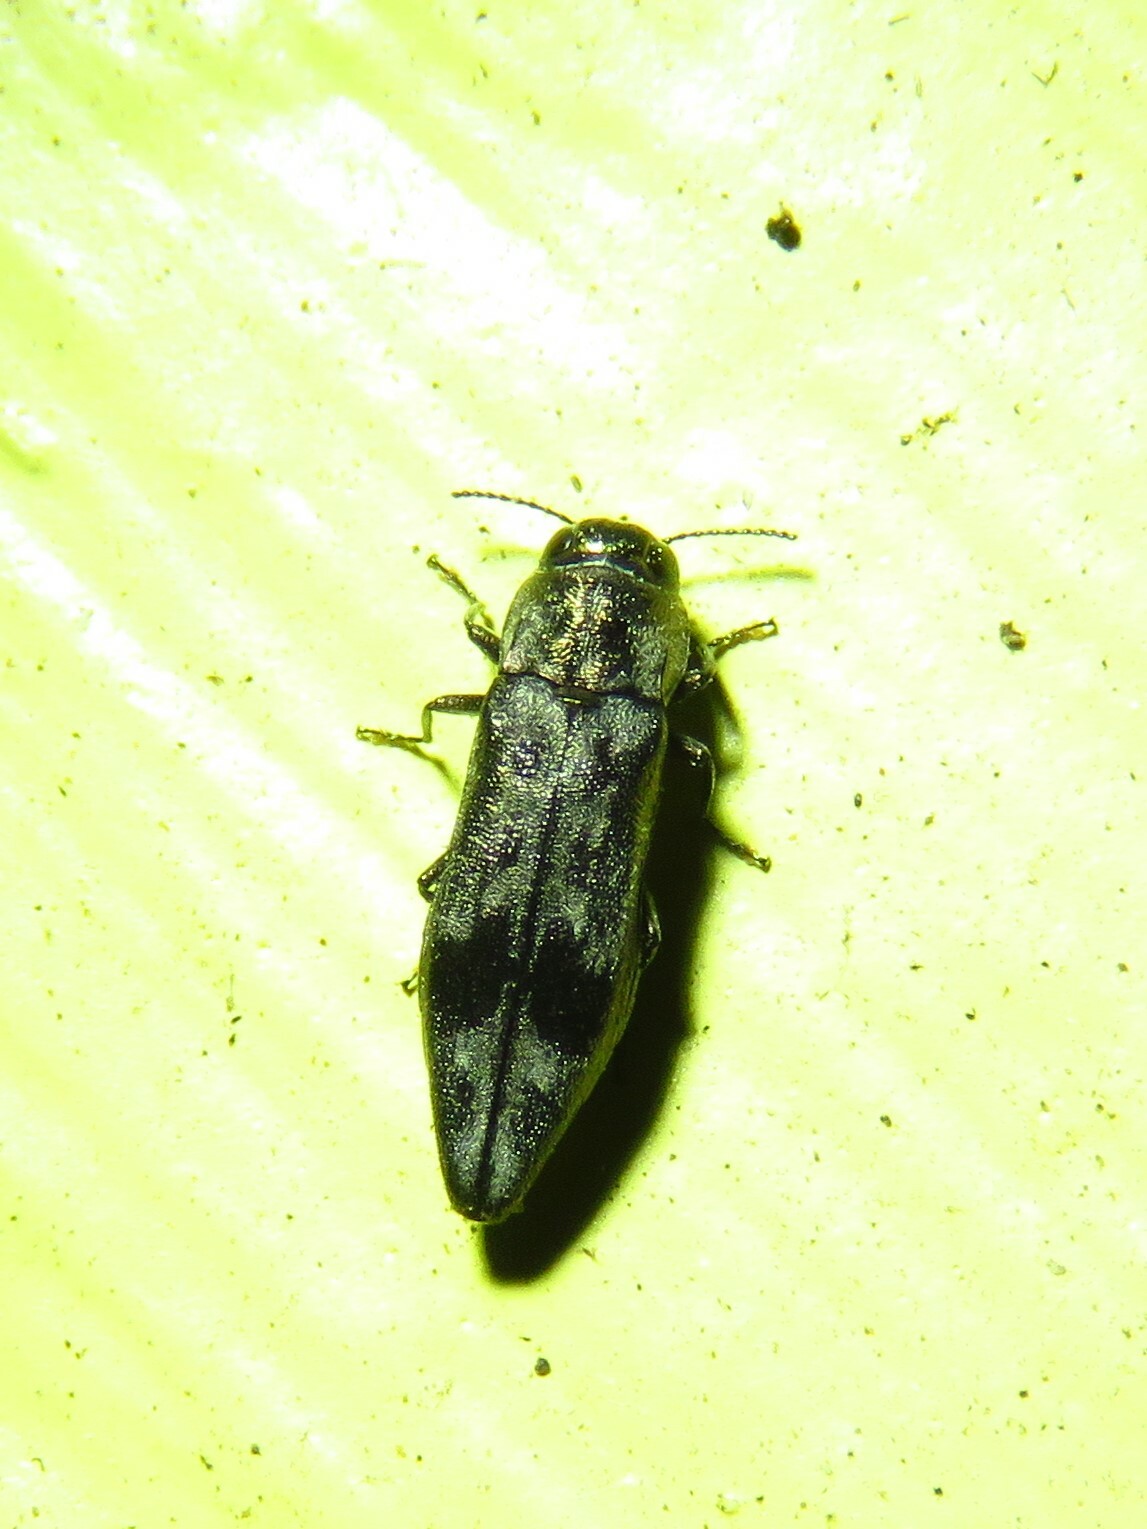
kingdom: Animalia
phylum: Arthropoda
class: Insecta
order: Coleoptera
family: Buprestidae
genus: Agrilus
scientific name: Agrilus lecontei
